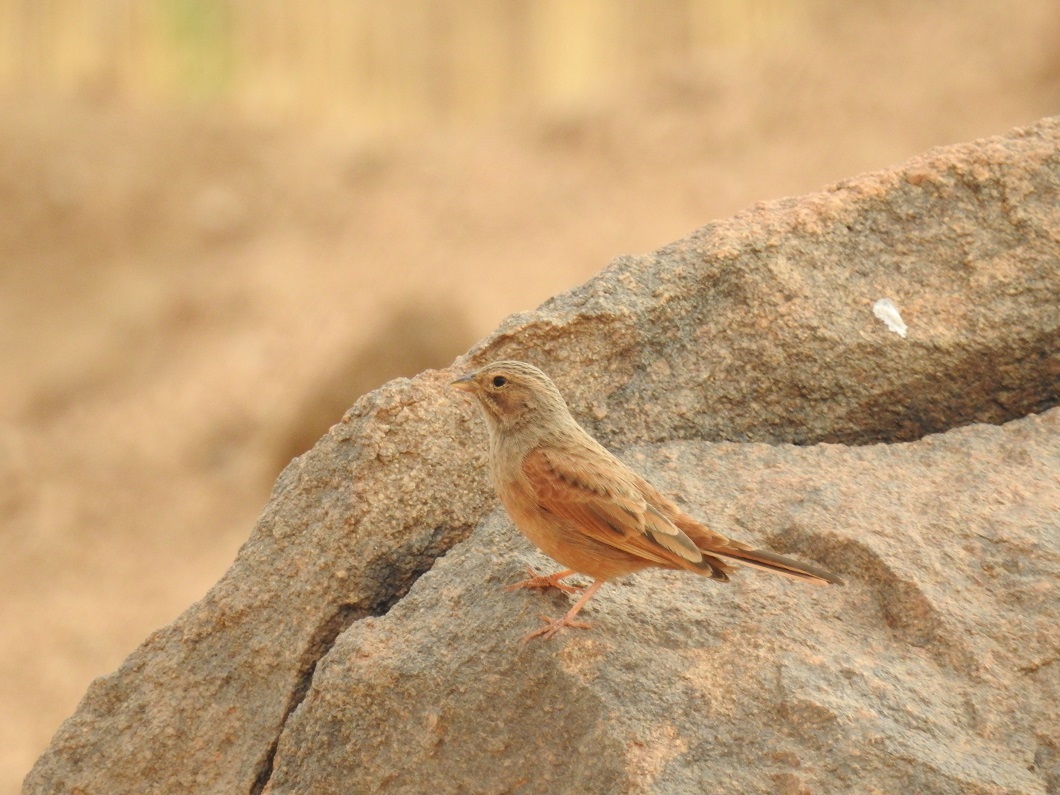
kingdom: Animalia
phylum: Chordata
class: Aves
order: Passeriformes
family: Emberizidae
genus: Emberiza
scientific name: Emberiza sahari
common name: House bunting
